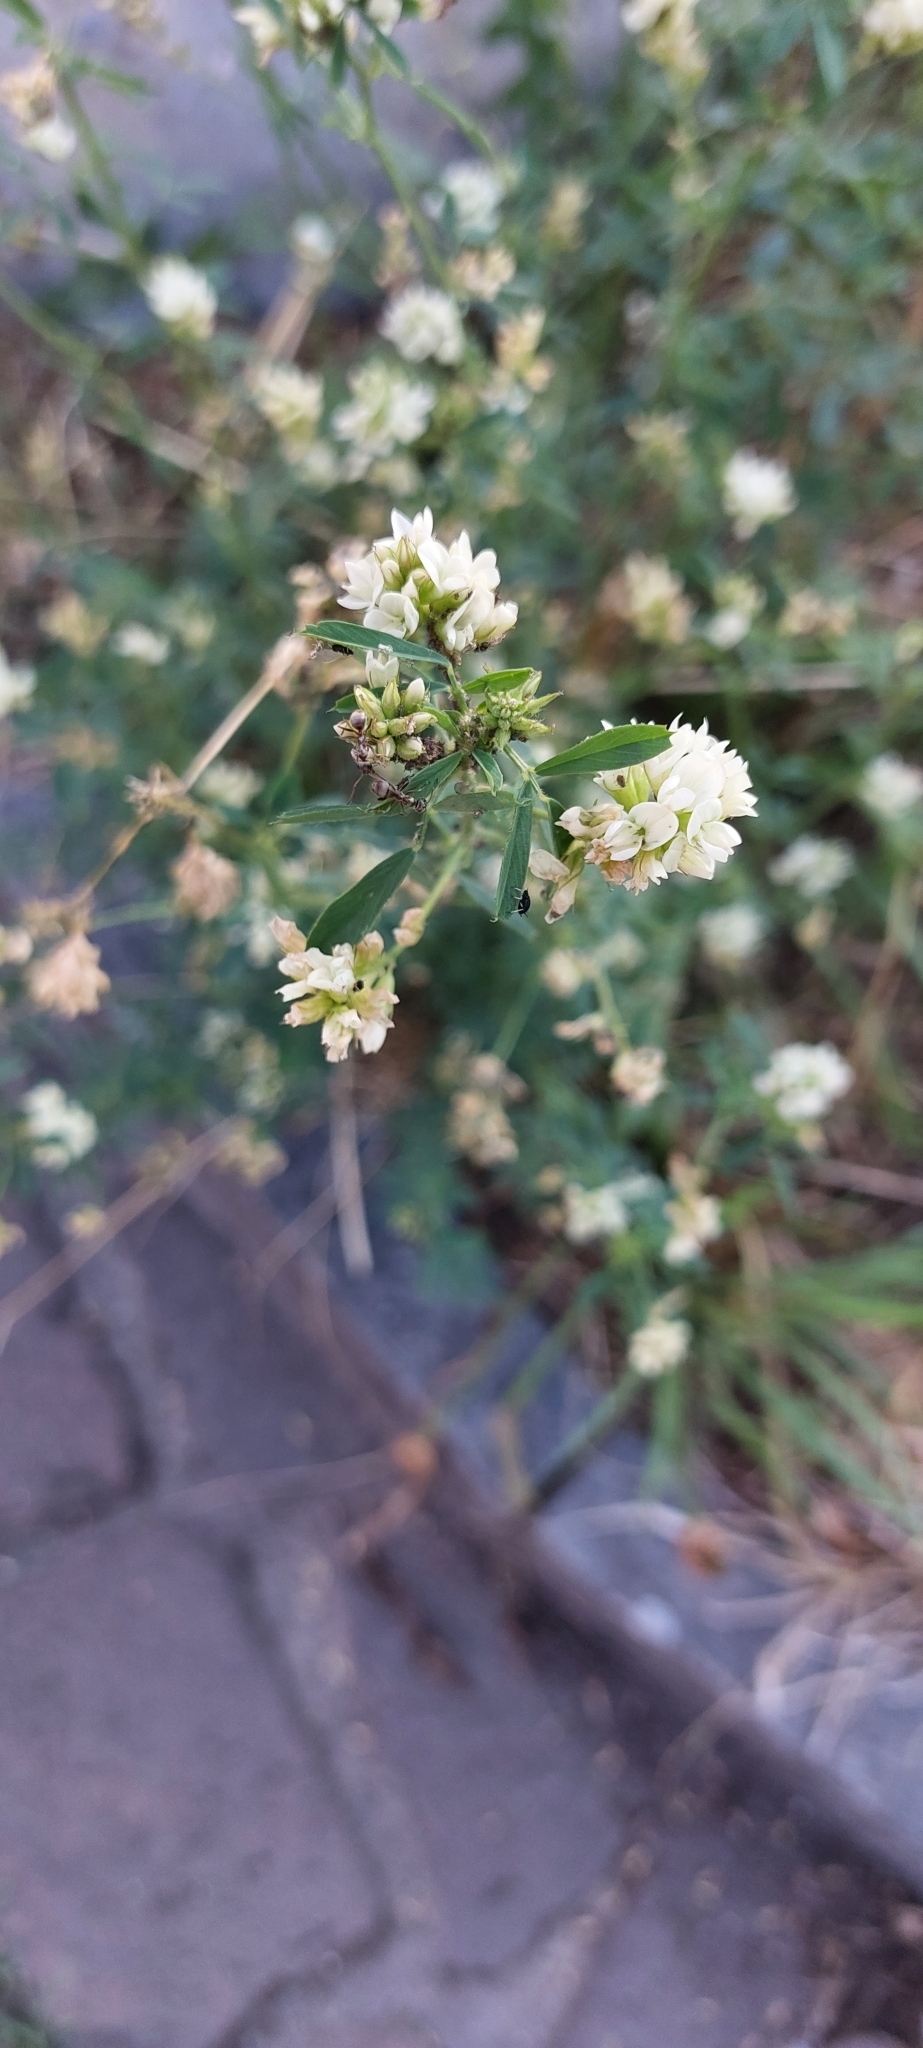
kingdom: Plantae
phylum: Tracheophyta
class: Magnoliopsida
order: Fabales
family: Fabaceae
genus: Melilotus
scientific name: Melilotus albus
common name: White melilot
